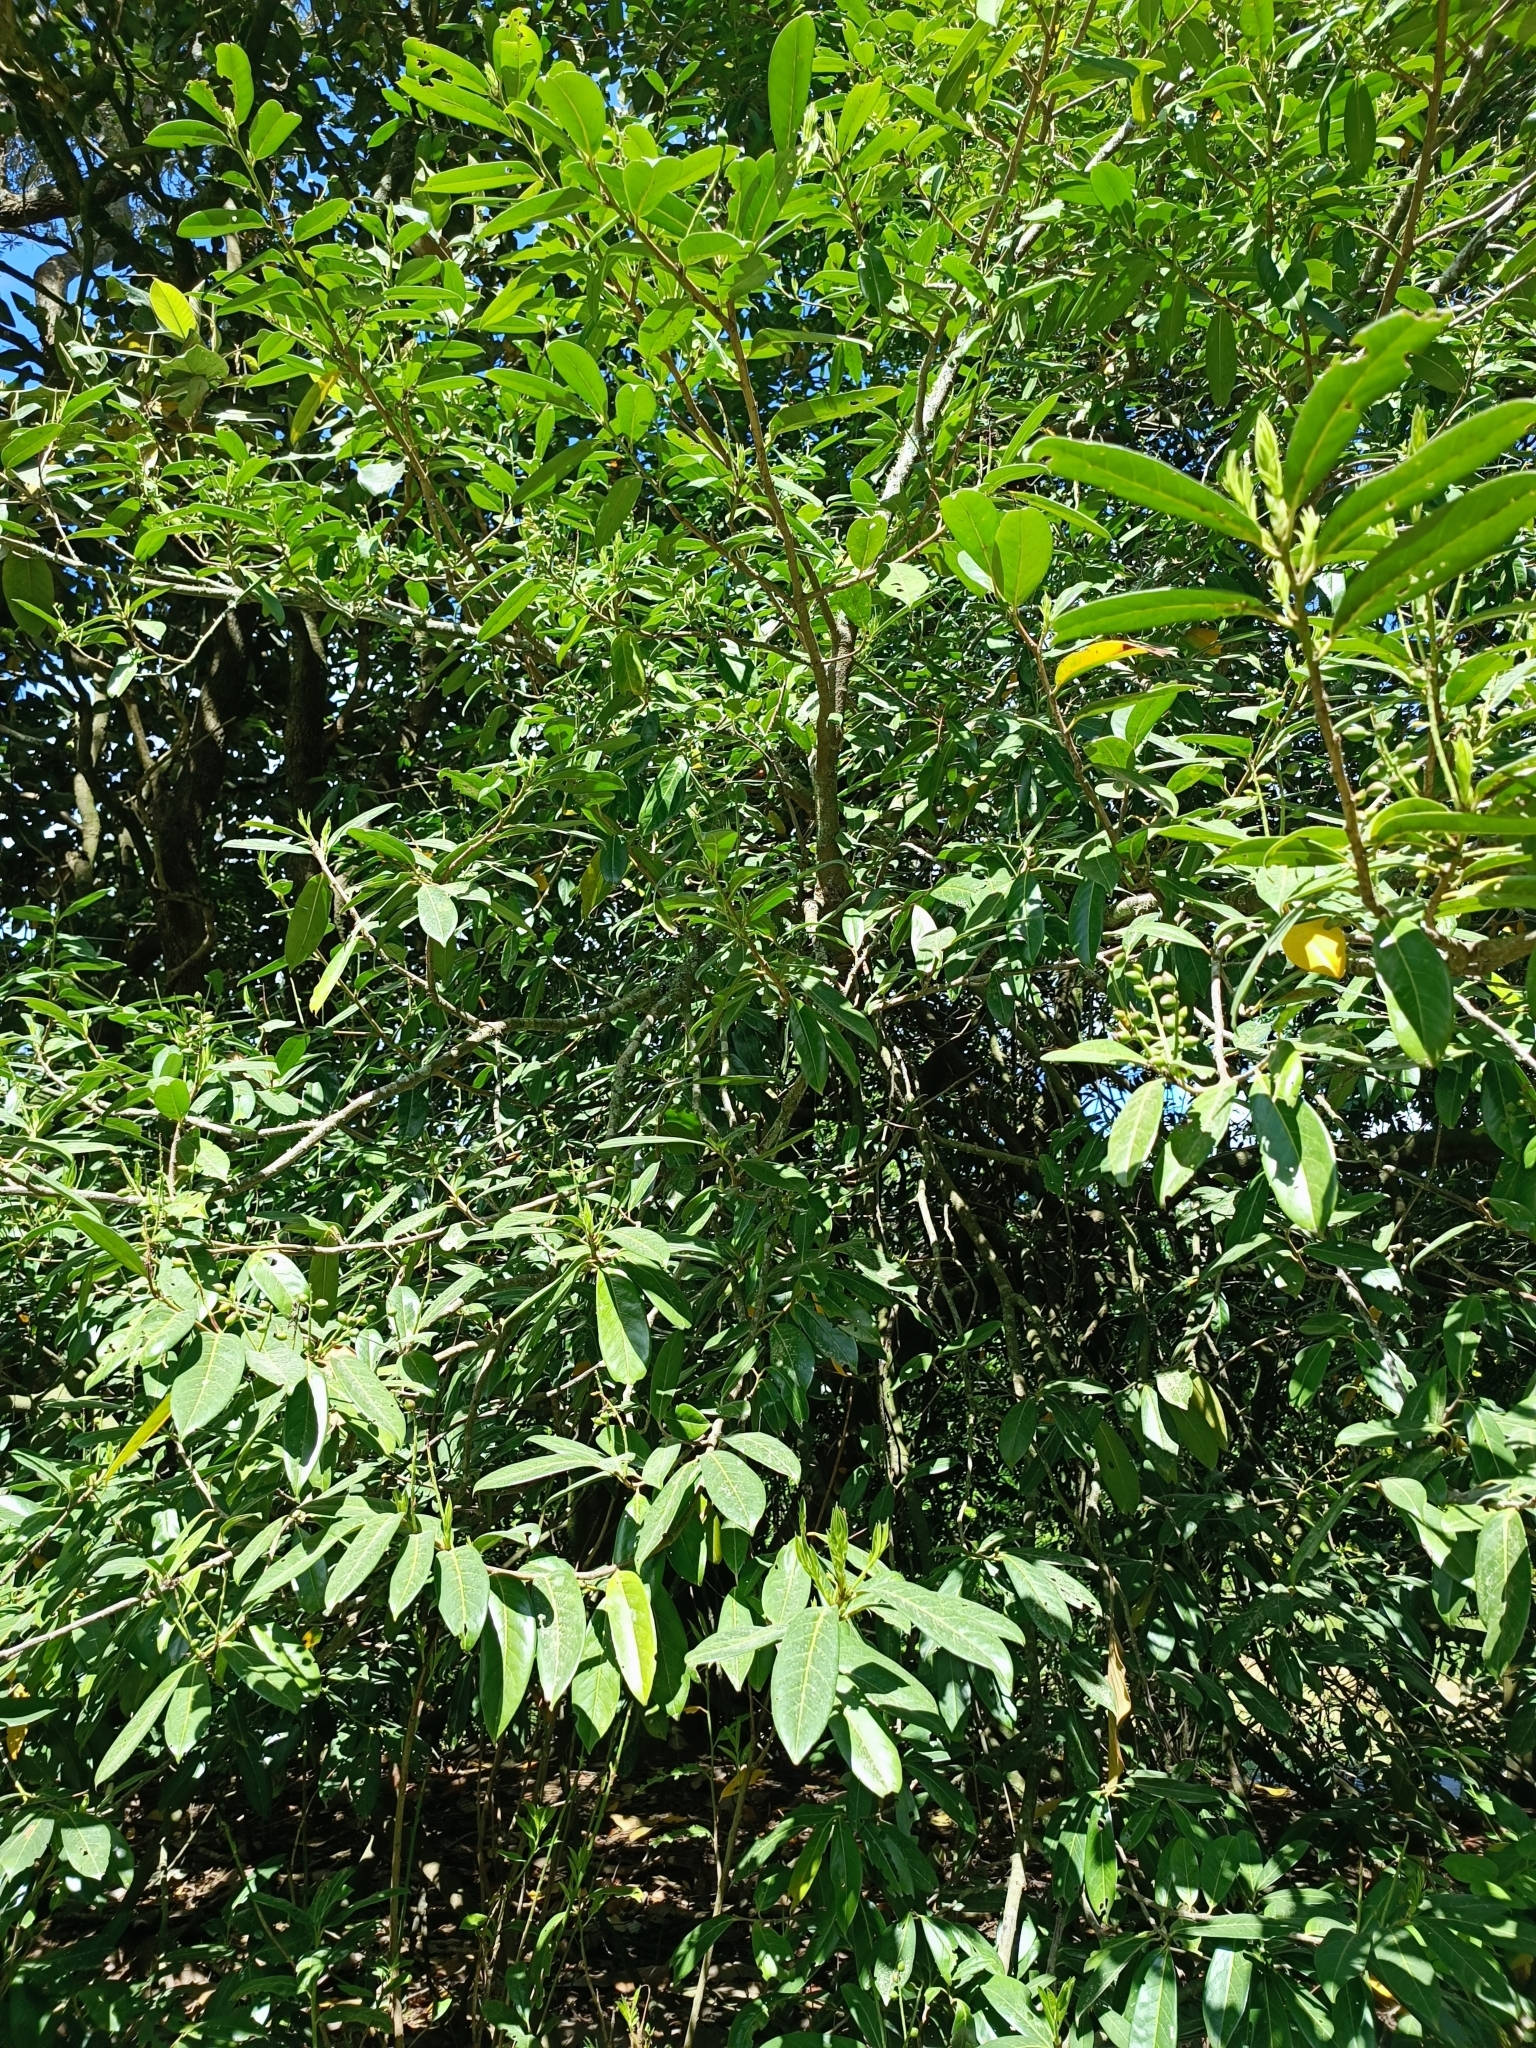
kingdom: Plantae
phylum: Tracheophyta
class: Magnoliopsida
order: Rosales
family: Rosaceae
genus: Prunus
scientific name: Prunus laurocerasus
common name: Cherry laurel
